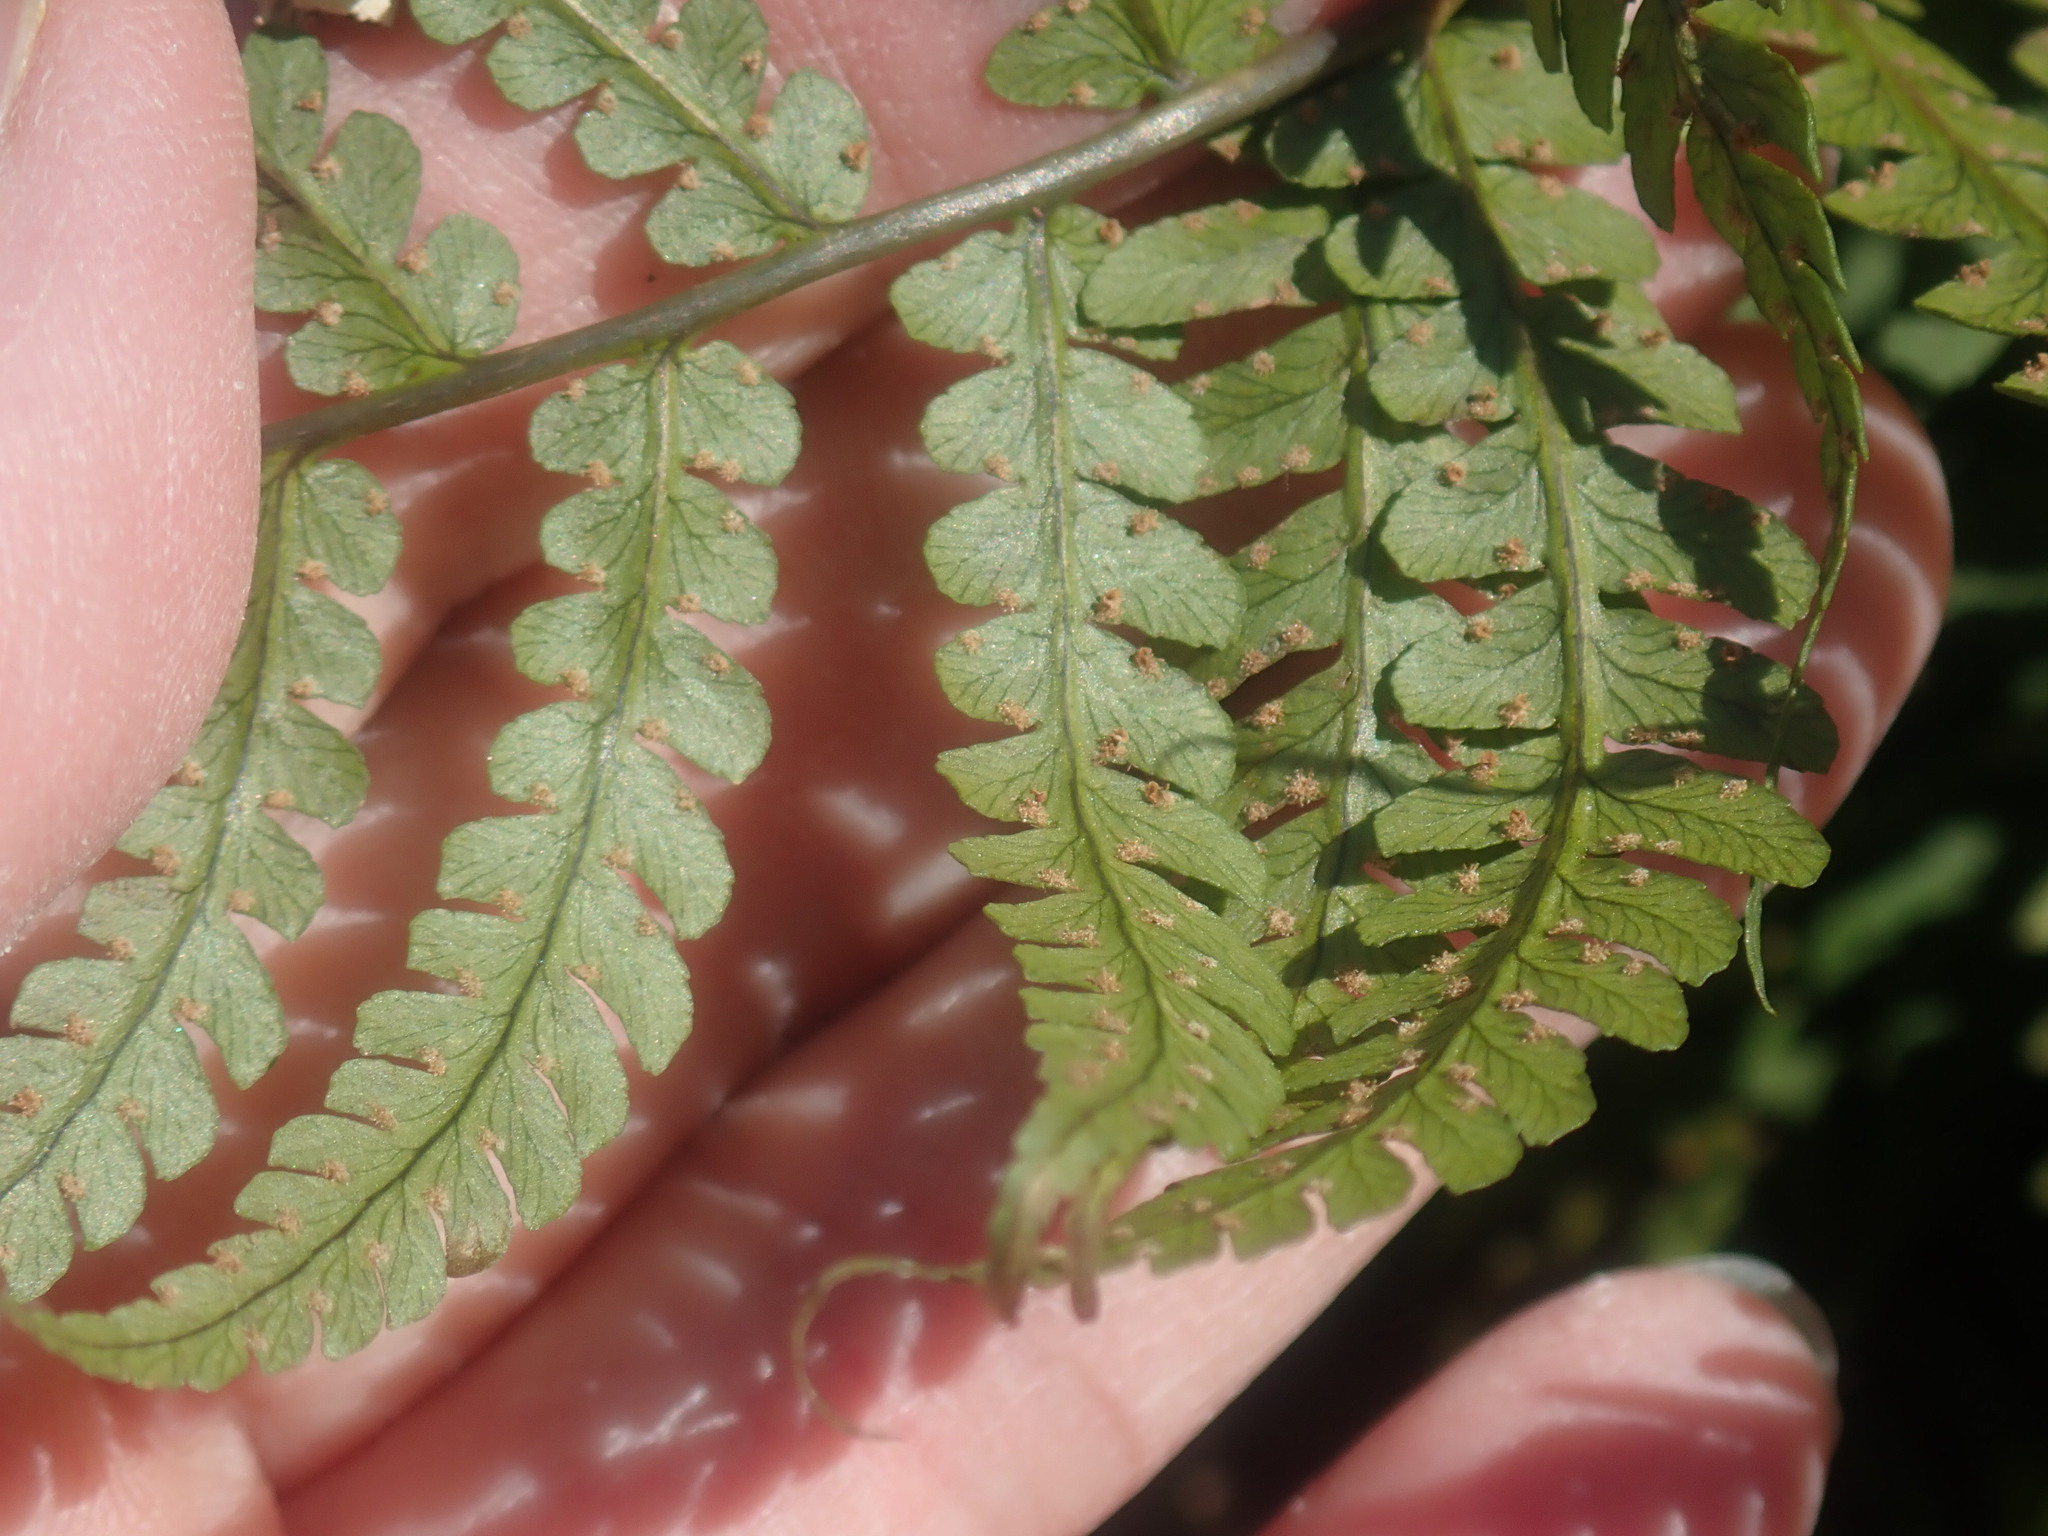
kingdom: Plantae
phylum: Tracheophyta
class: Polypodiopsida
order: Polypodiales
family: Dryopteridaceae
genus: Dryopteris
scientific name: Dryopteris marginalis
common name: Marginal wood fern
